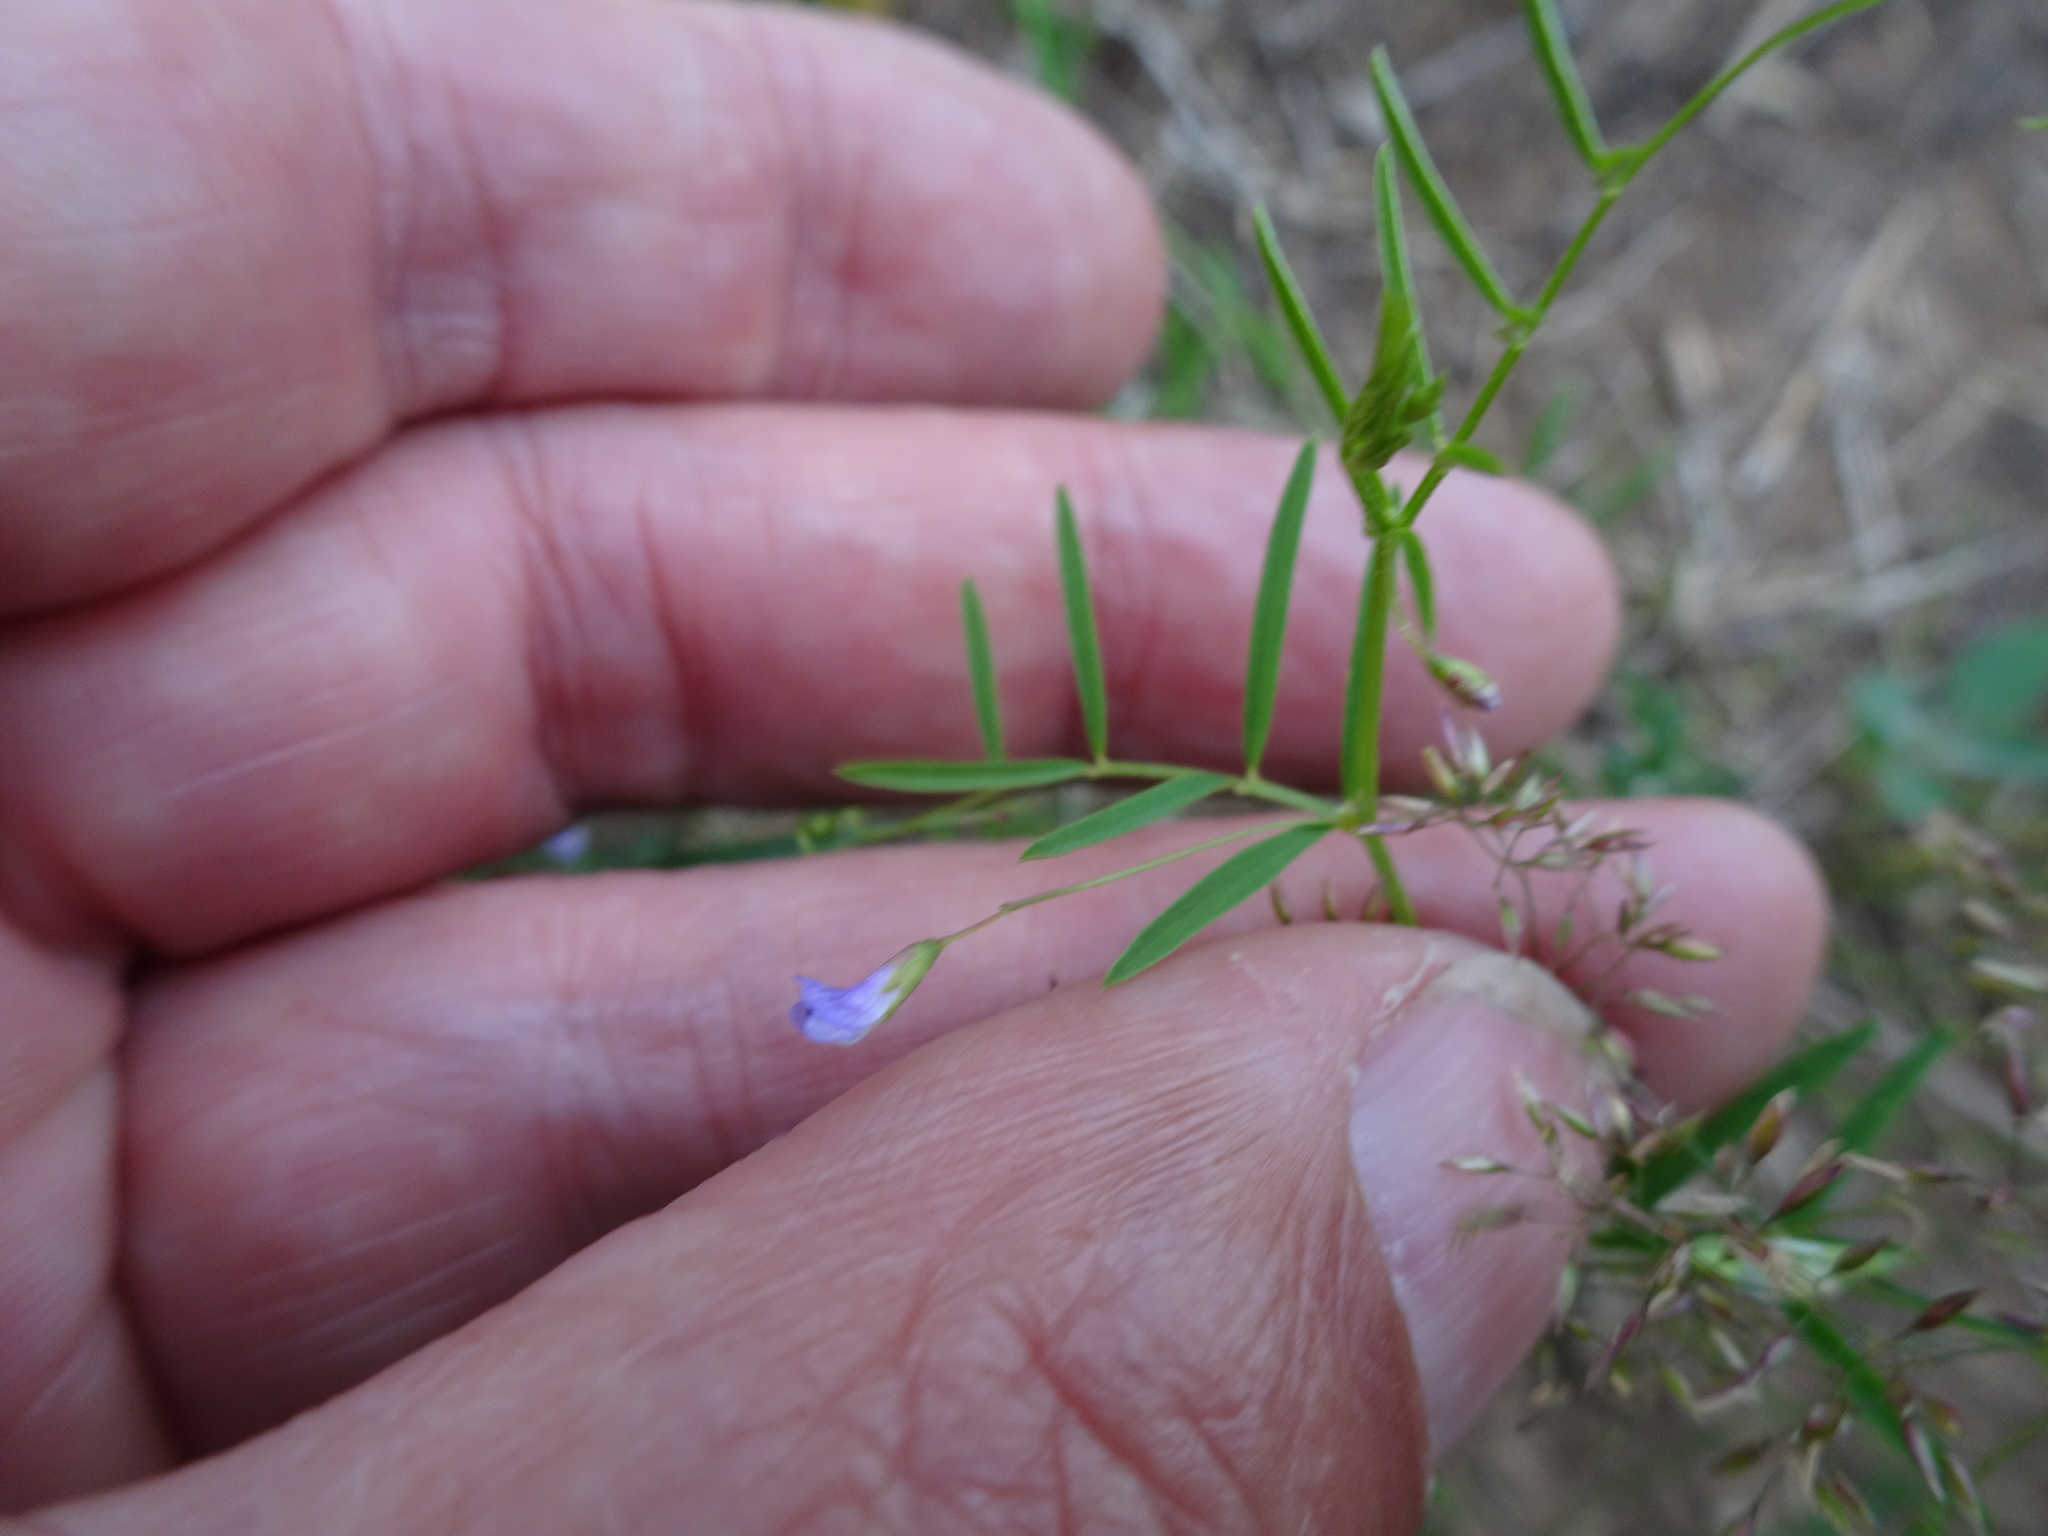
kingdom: Plantae
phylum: Tracheophyta
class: Magnoliopsida
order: Fabales
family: Fabaceae
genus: Vicia
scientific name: Vicia tetrasperma
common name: Smooth tare
